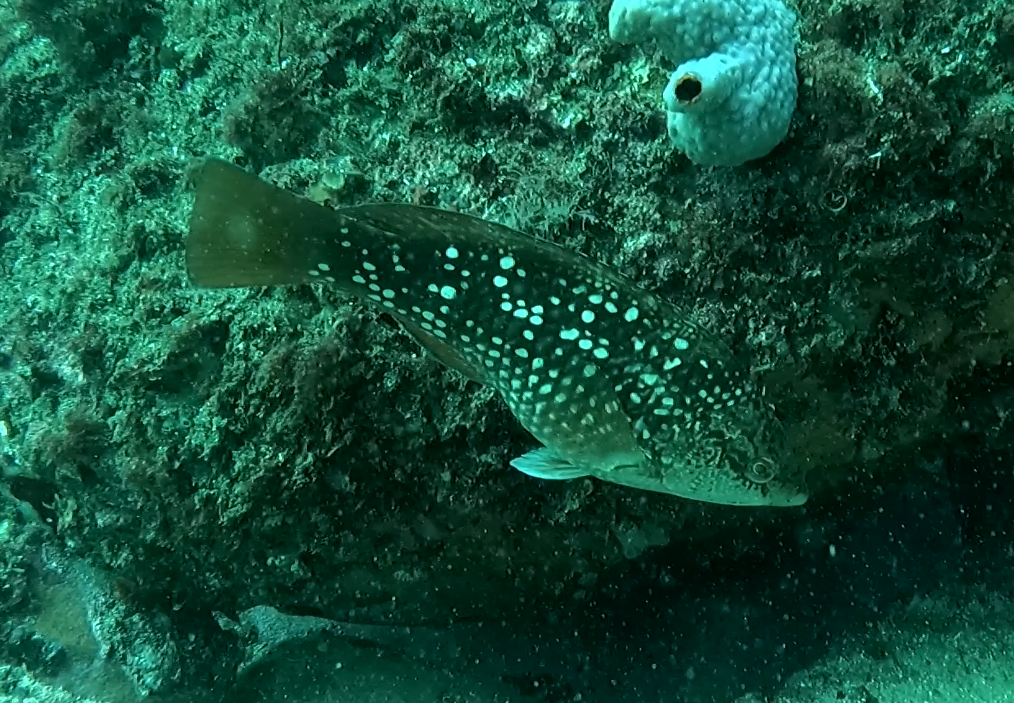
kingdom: Animalia
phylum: Chordata
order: Perciformes
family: Labridae
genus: Notolabrus
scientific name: Notolabrus gymnogenis
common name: Crimson banded wrasse
